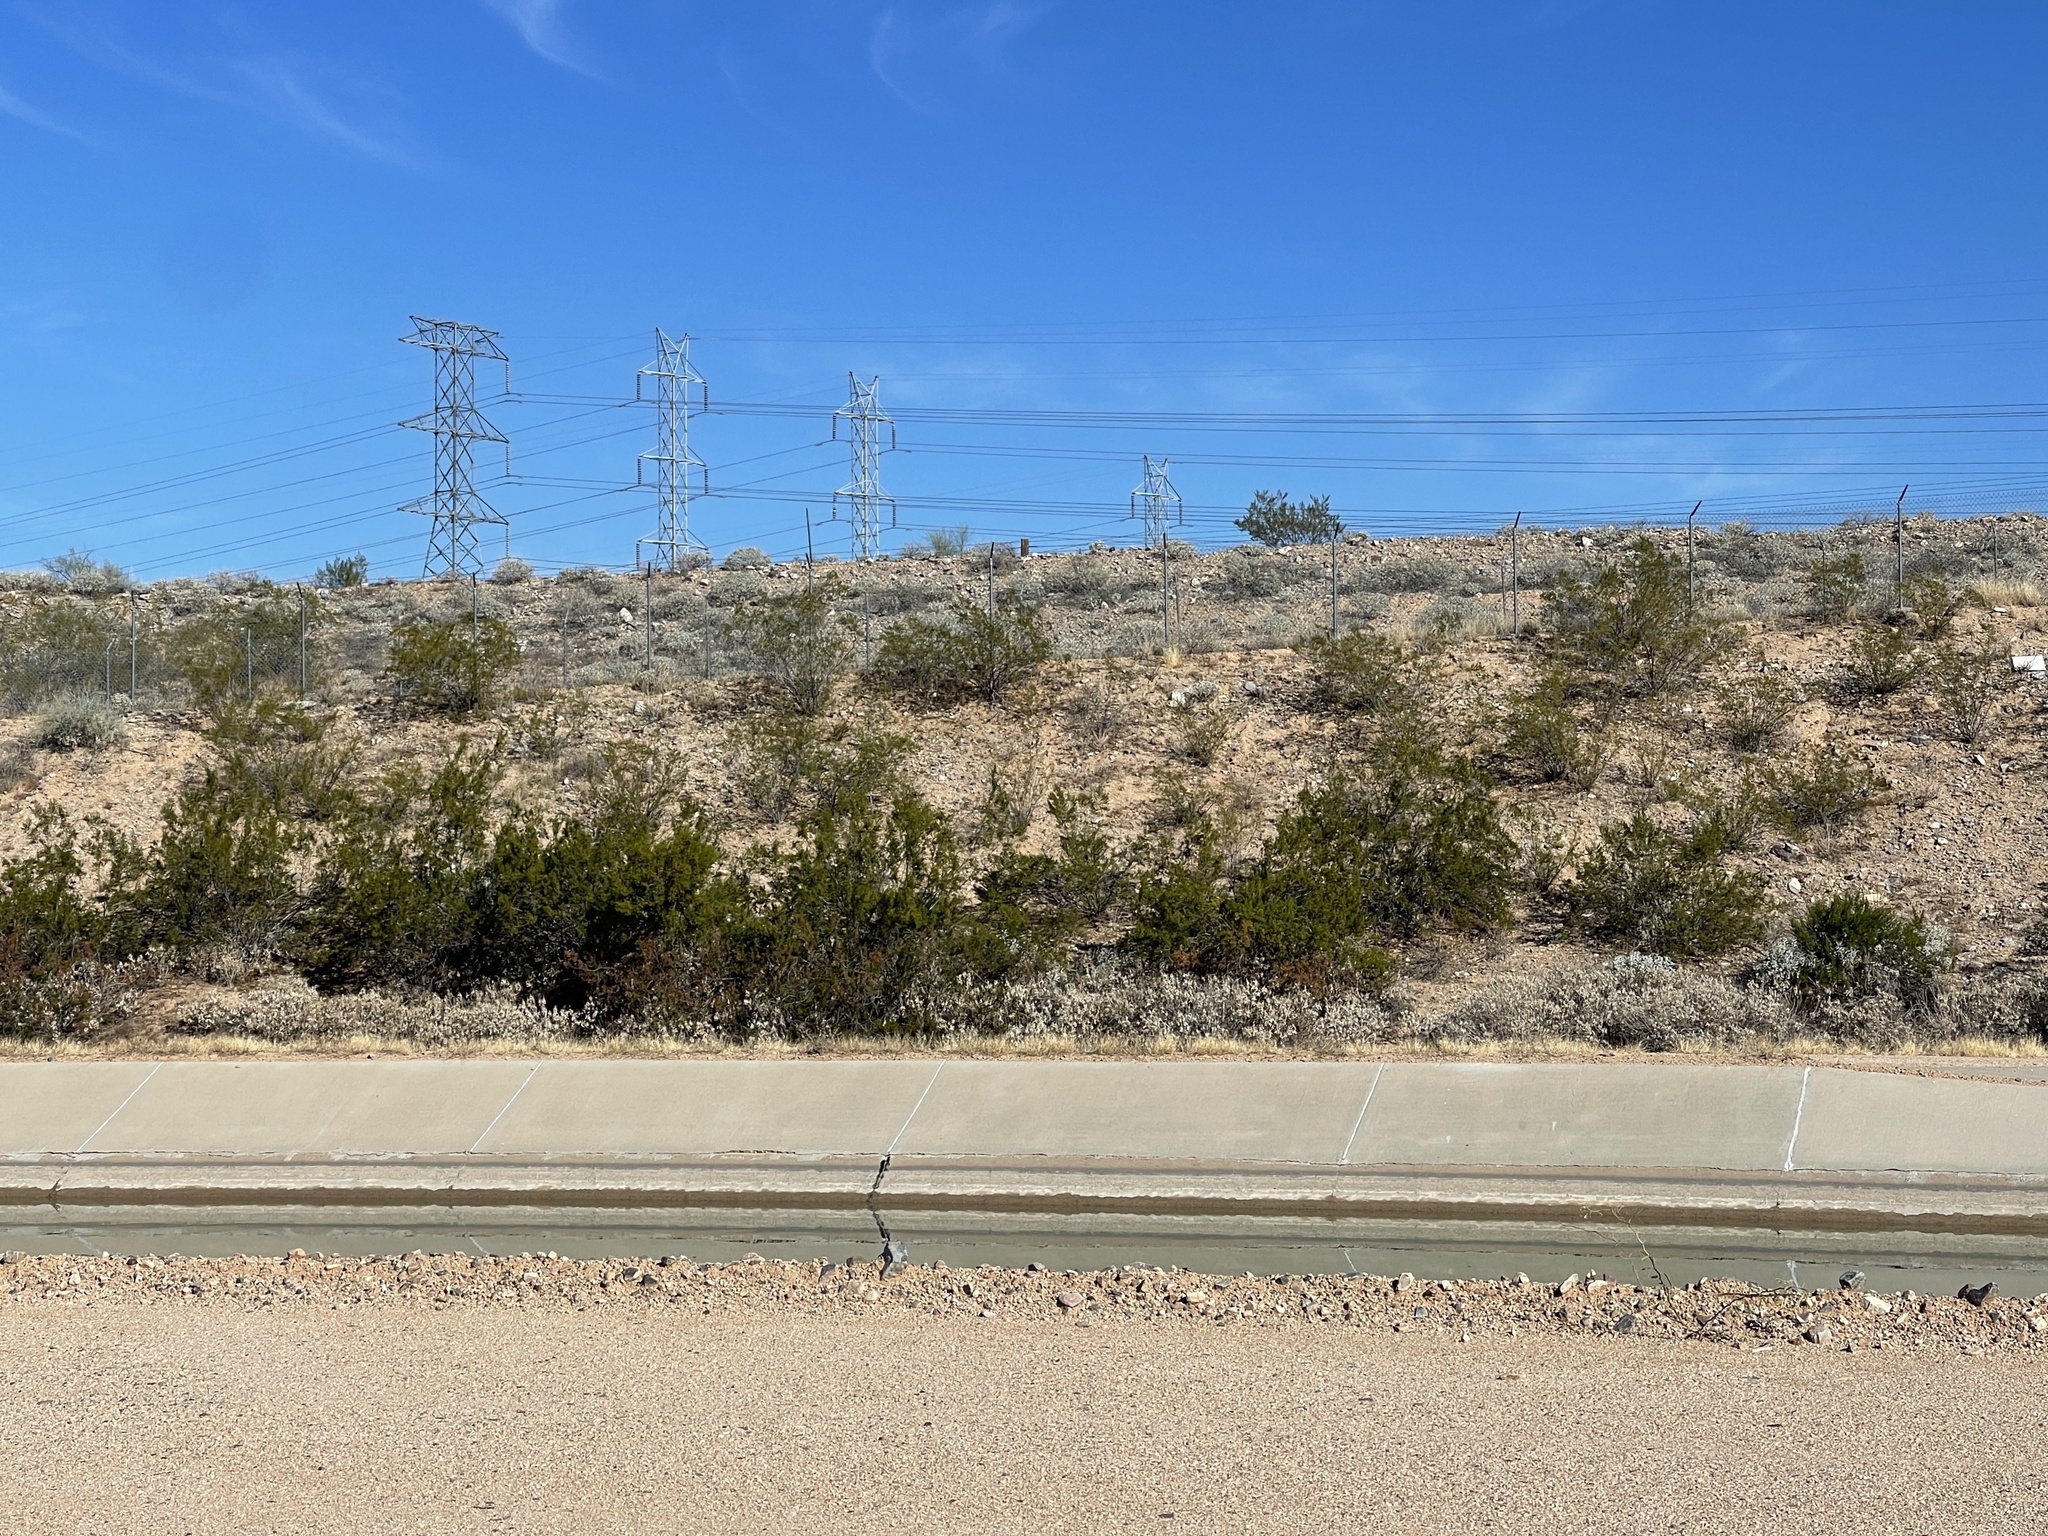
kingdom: Plantae
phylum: Tracheophyta
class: Magnoliopsida
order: Zygophyllales
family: Zygophyllaceae
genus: Larrea
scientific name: Larrea tridentata
